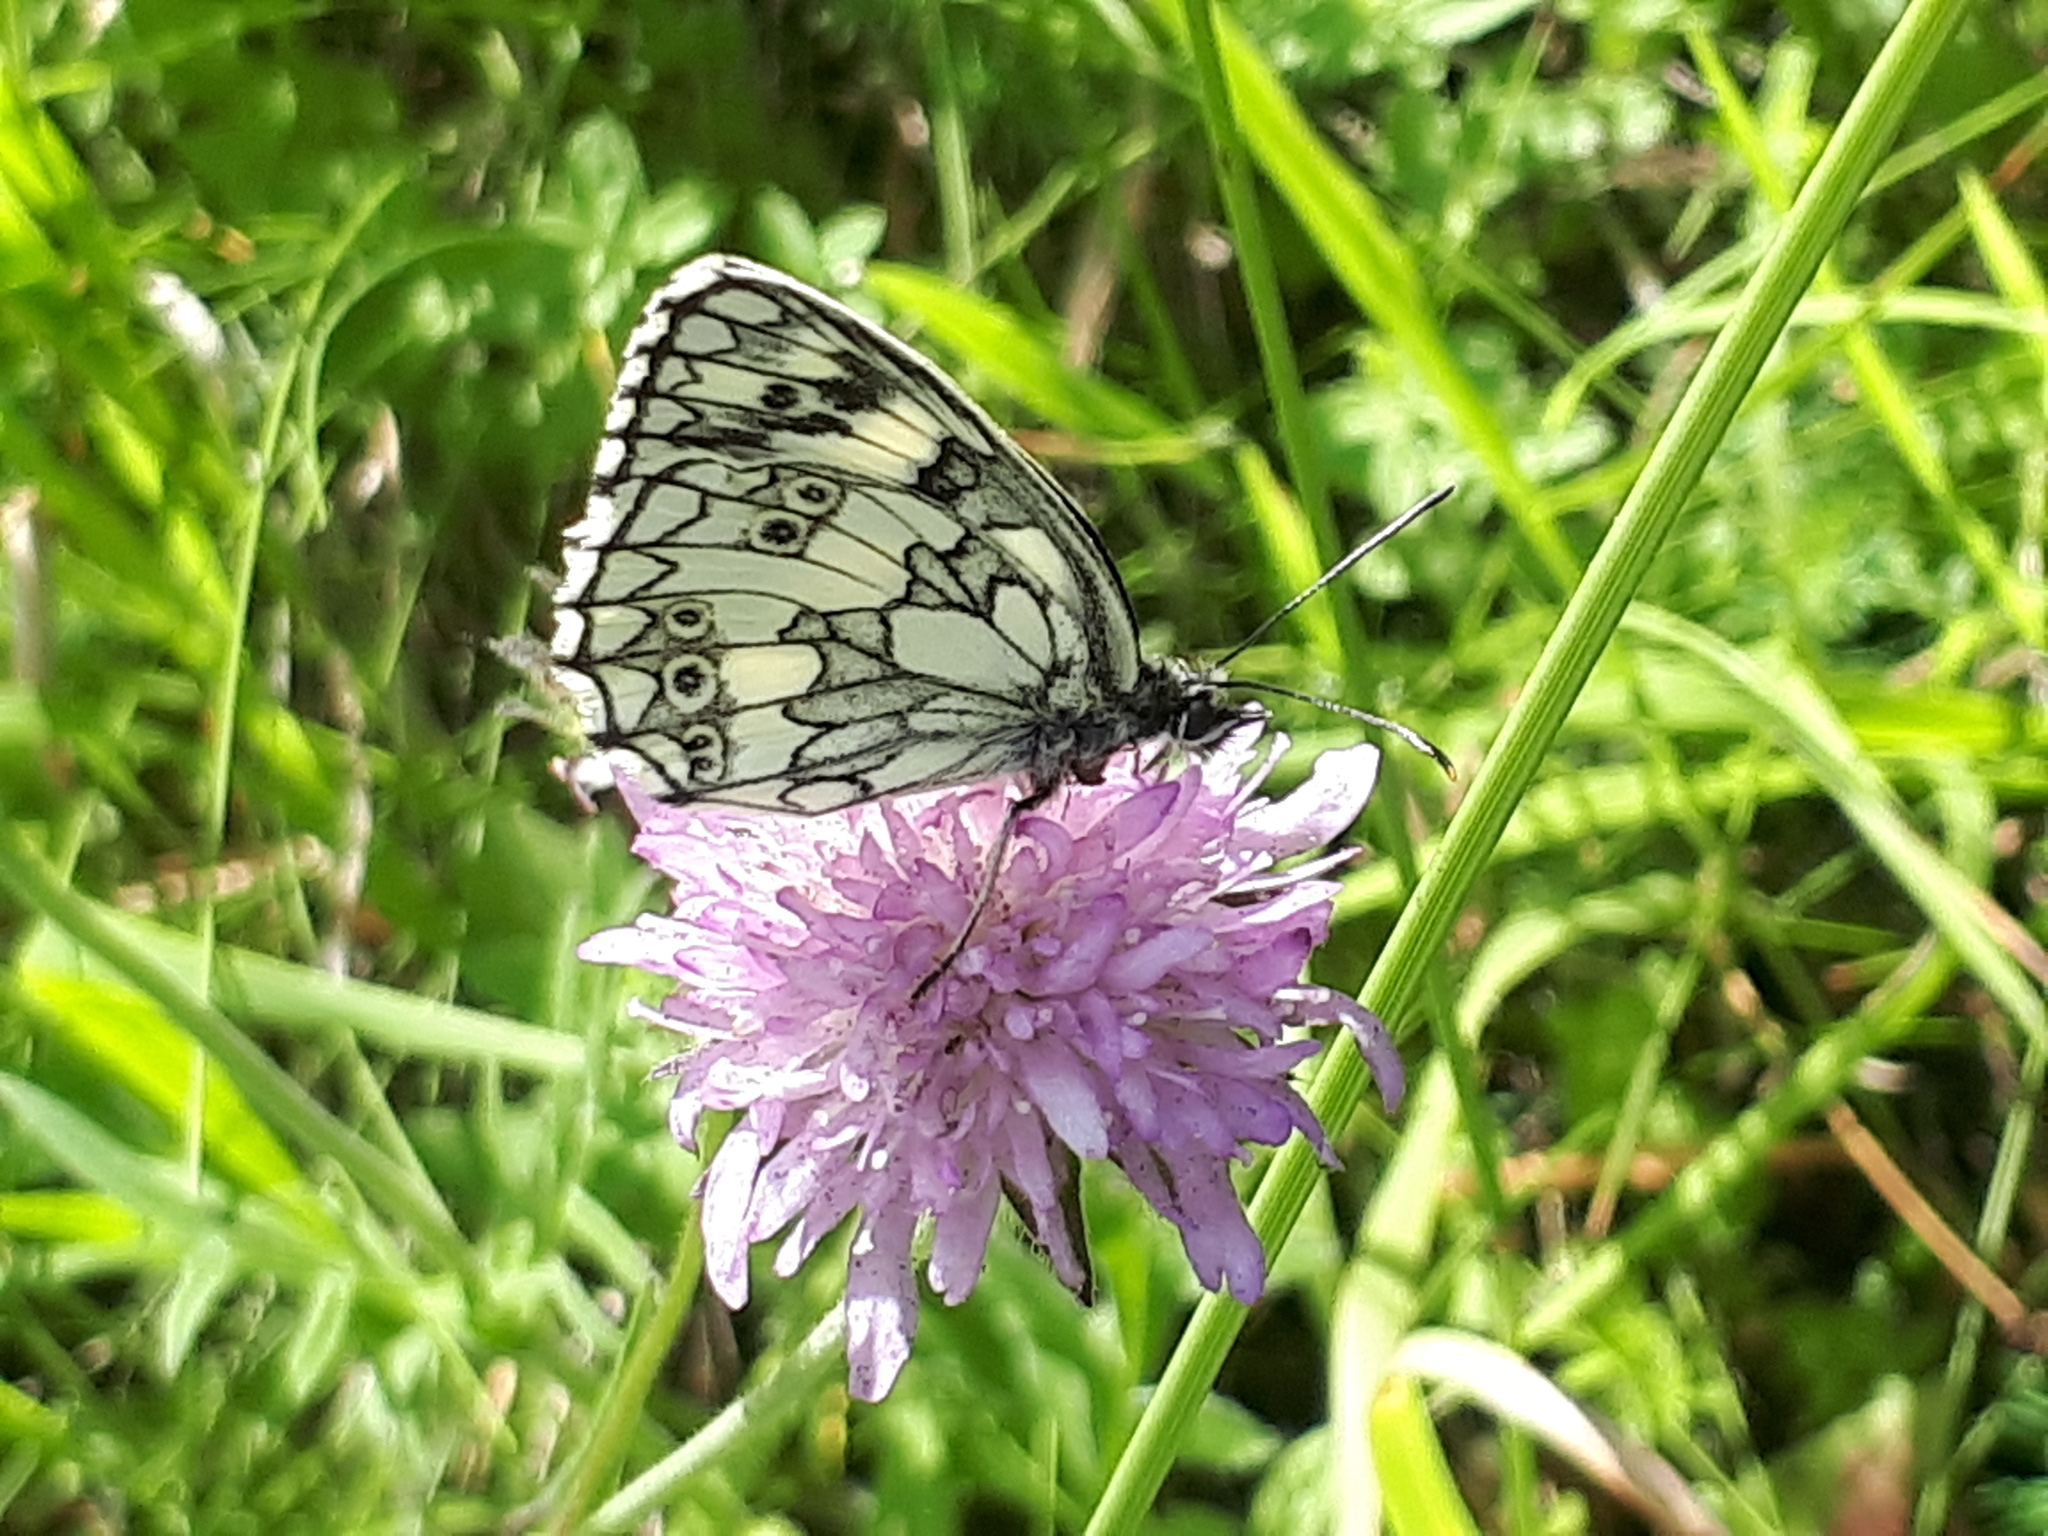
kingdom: Animalia
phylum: Arthropoda
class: Insecta
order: Lepidoptera
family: Nymphalidae
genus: Melanargia
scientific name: Melanargia galathea
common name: Marbled white
